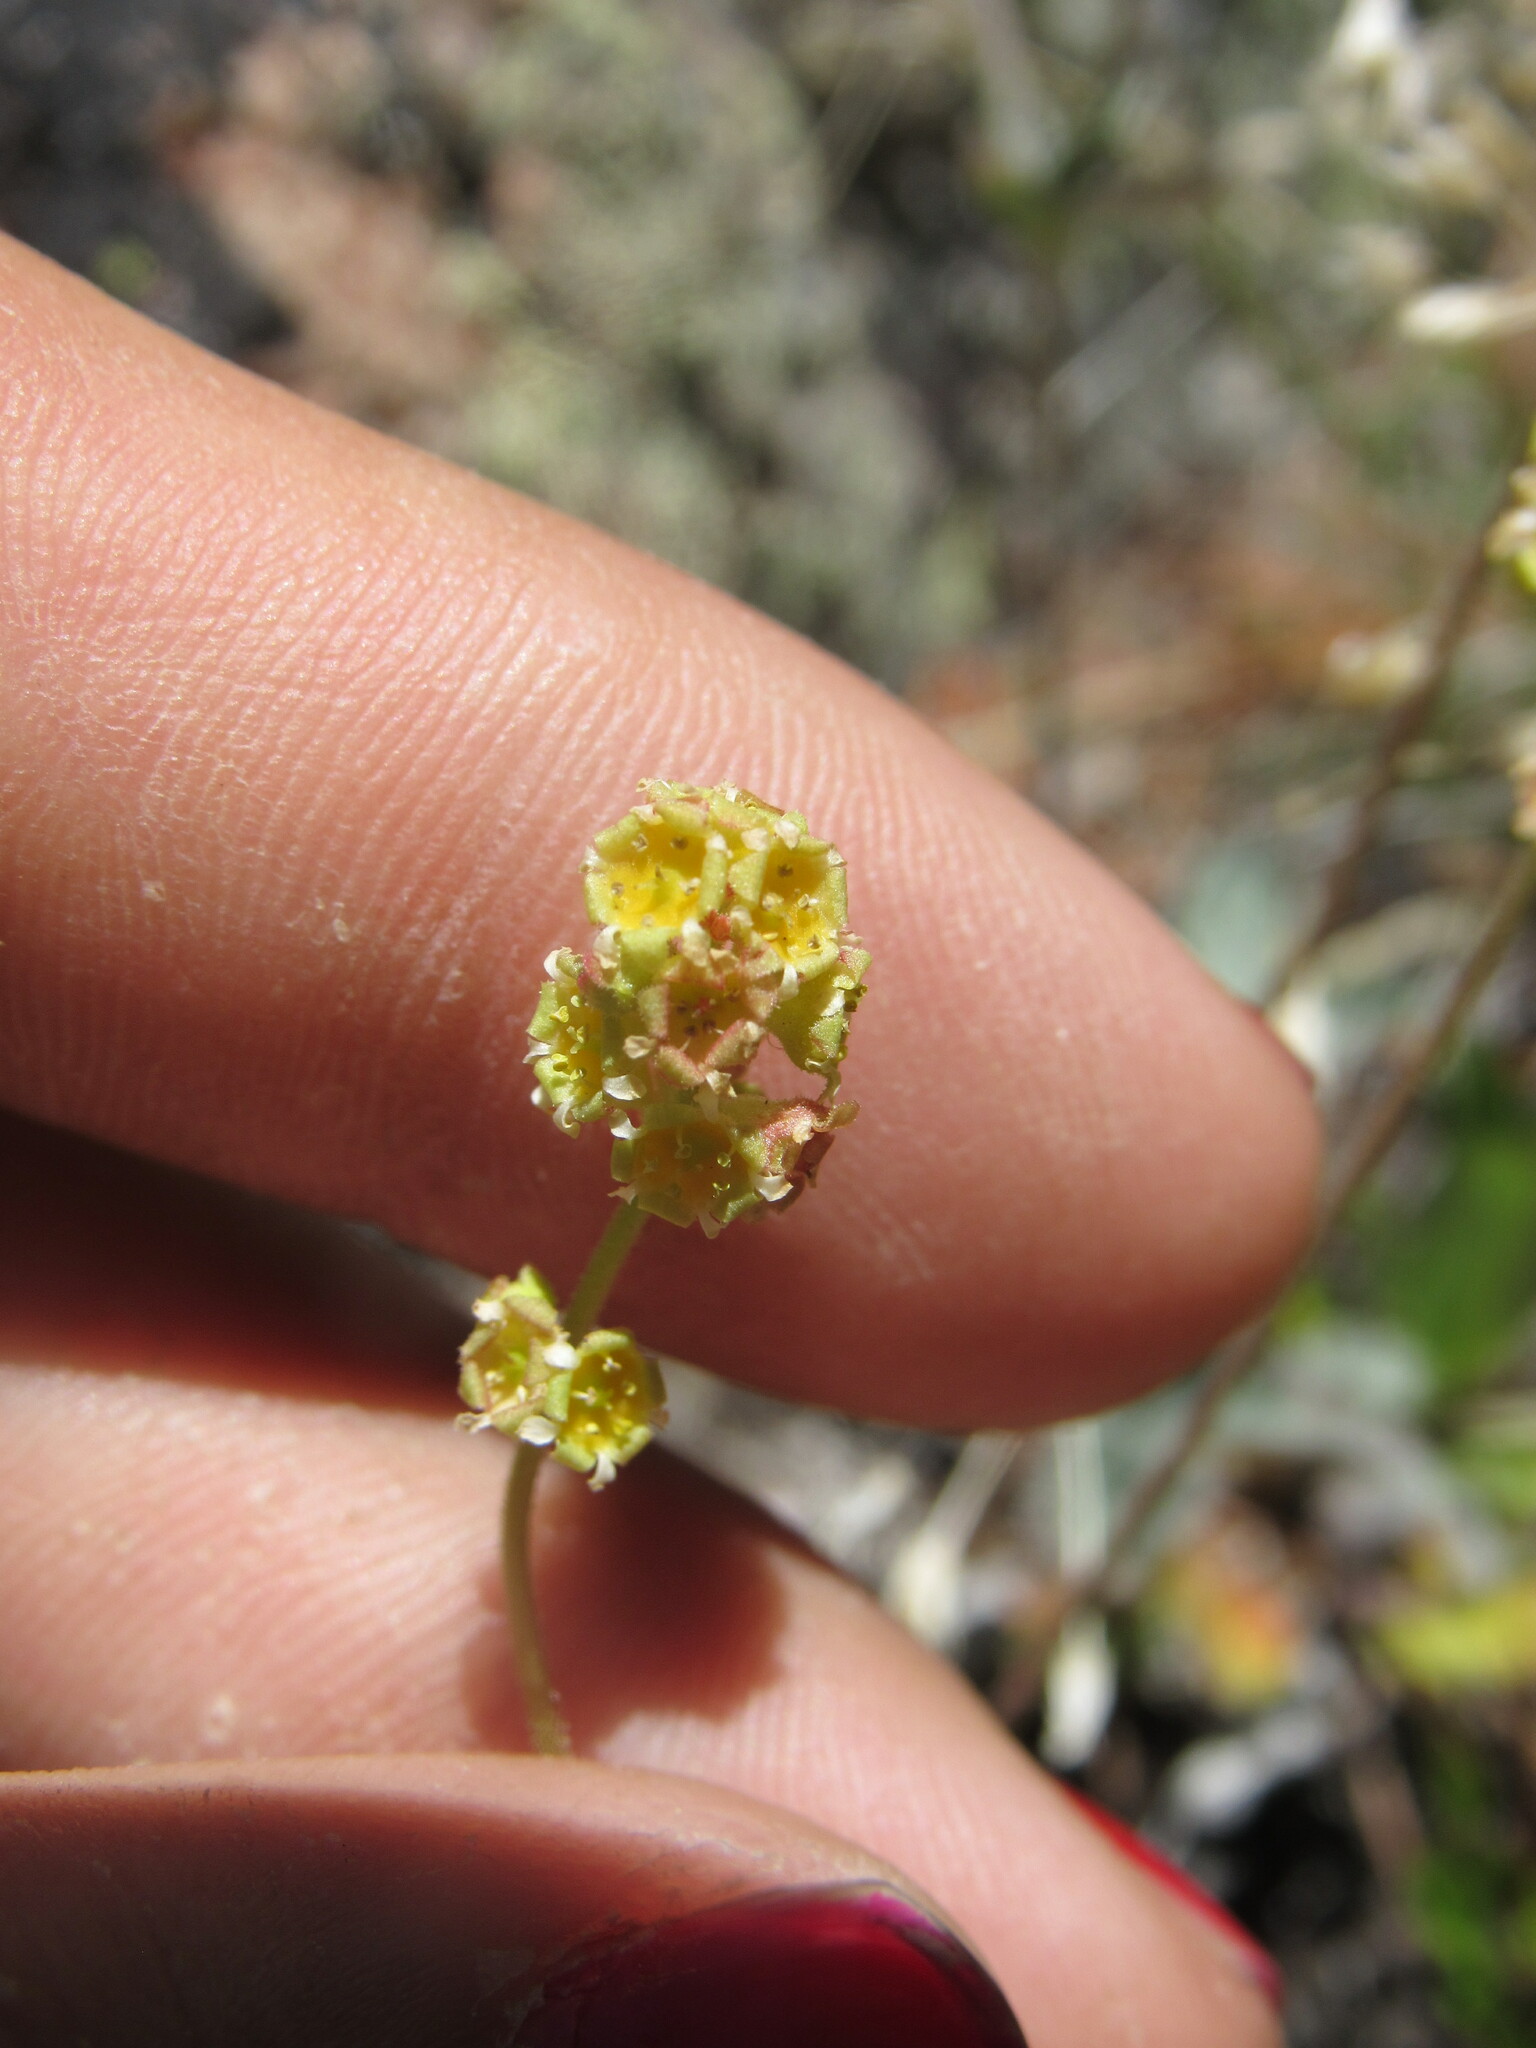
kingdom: Plantae
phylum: Tracheophyta
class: Magnoliopsida
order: Saxifragales
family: Saxifragaceae
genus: Heuchera
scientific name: Heuchera parvifolia
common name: Common alumroot
